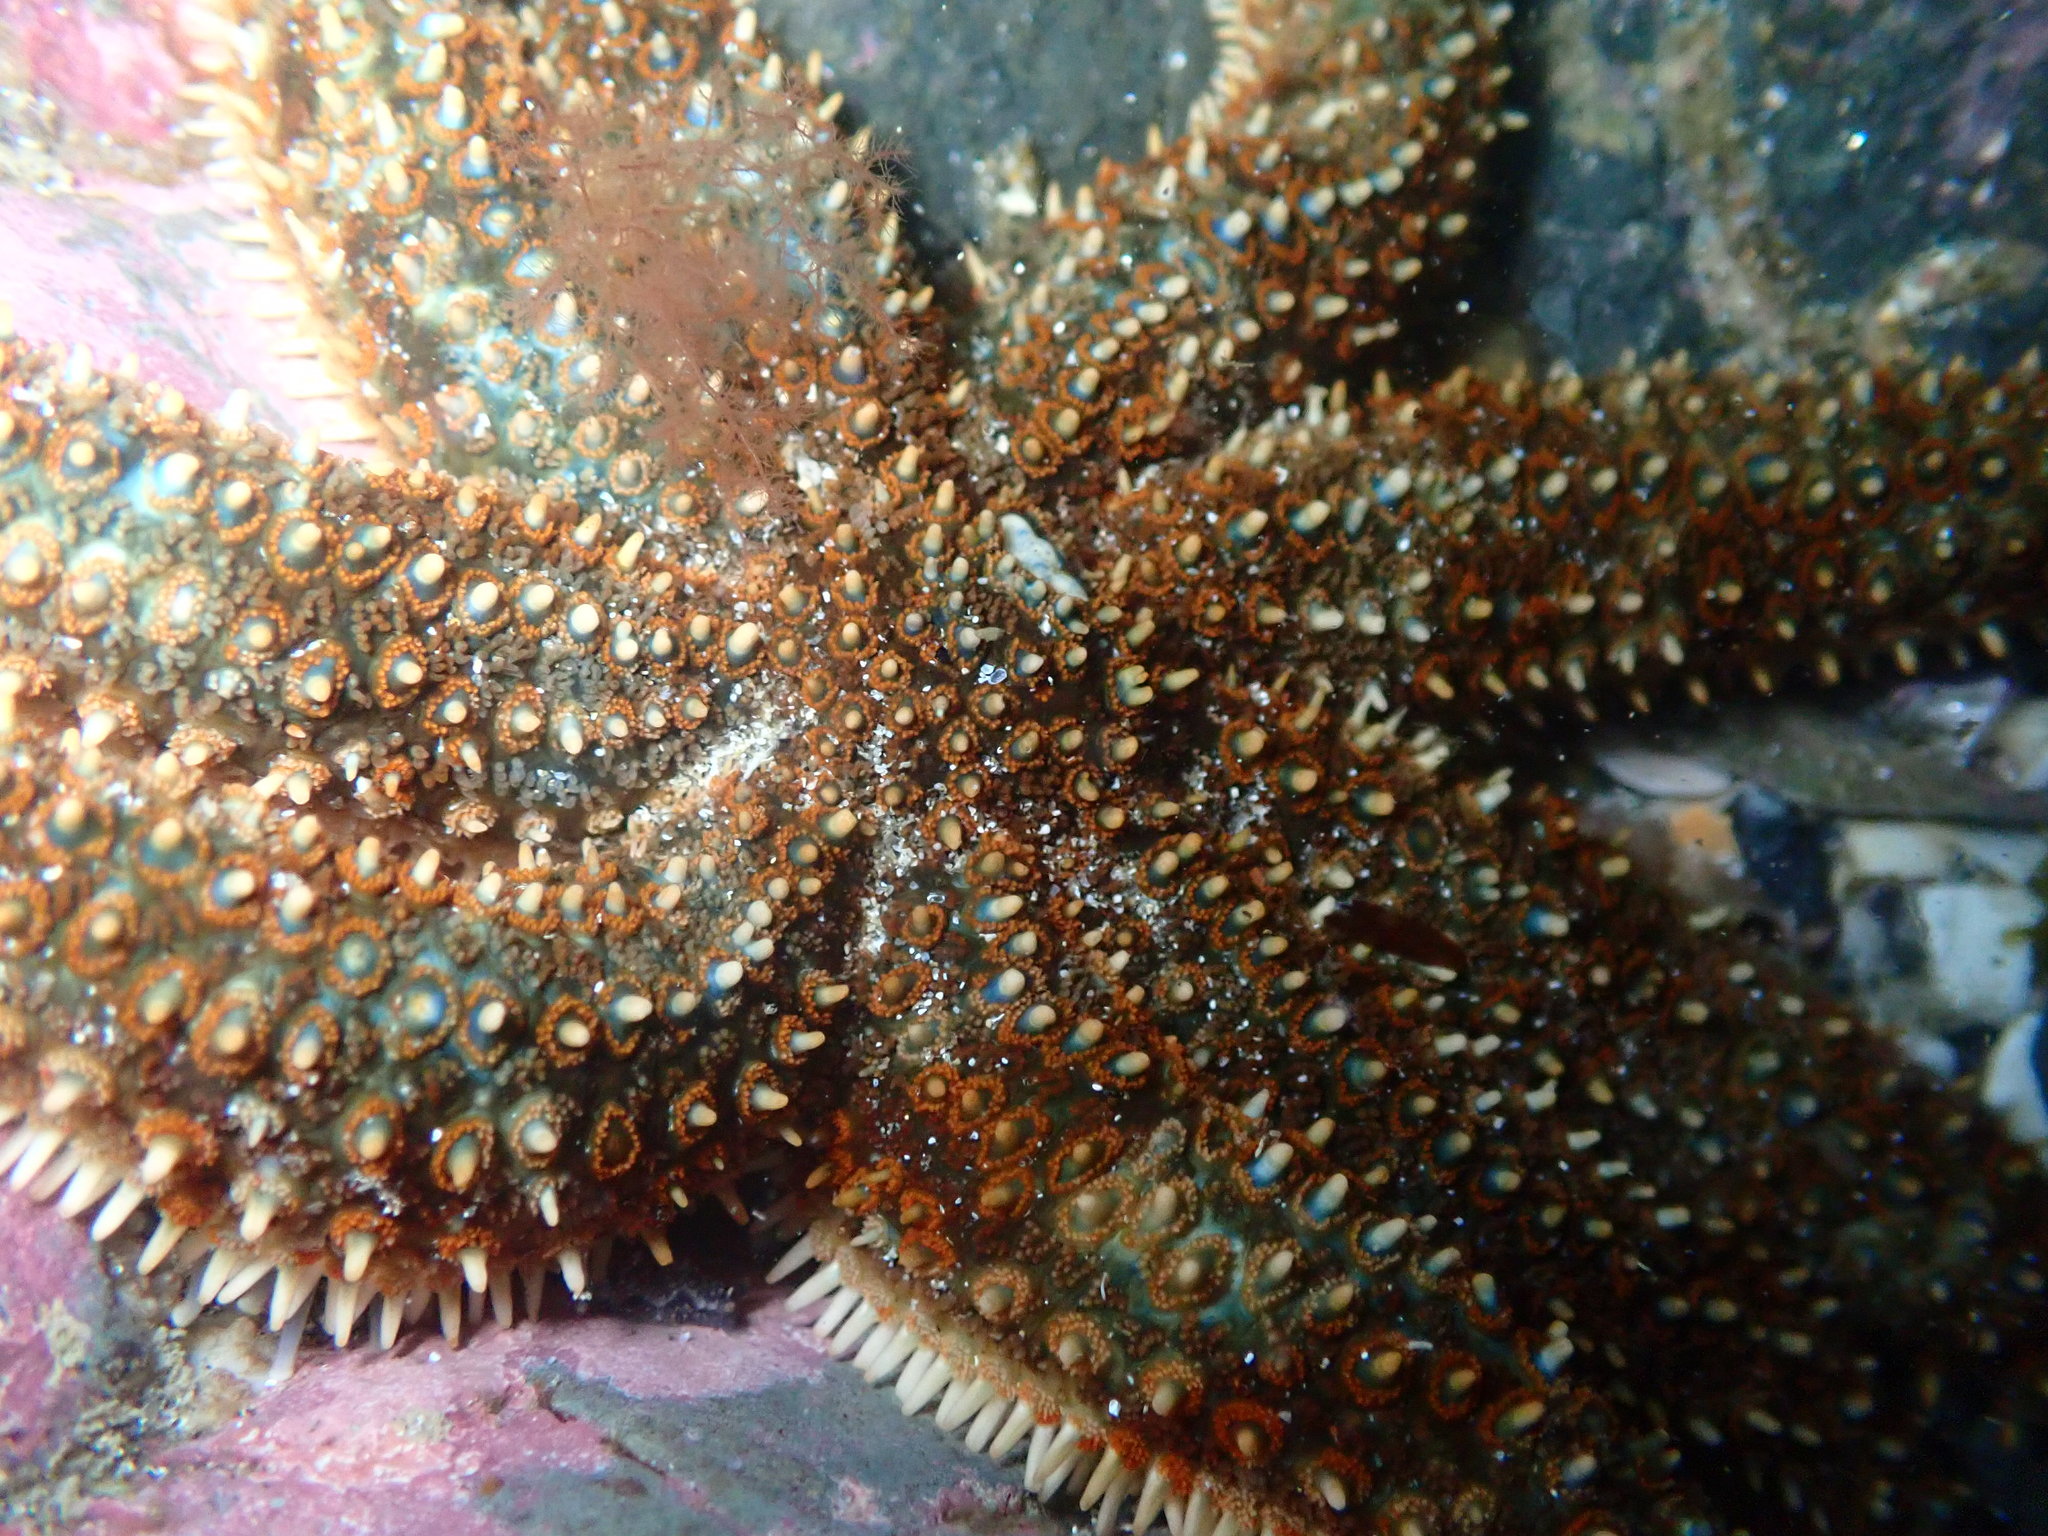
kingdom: Animalia
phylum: Echinodermata
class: Asteroidea
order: Forcipulatida
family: Asteriidae
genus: Coscinasterias
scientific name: Coscinasterias muricata
